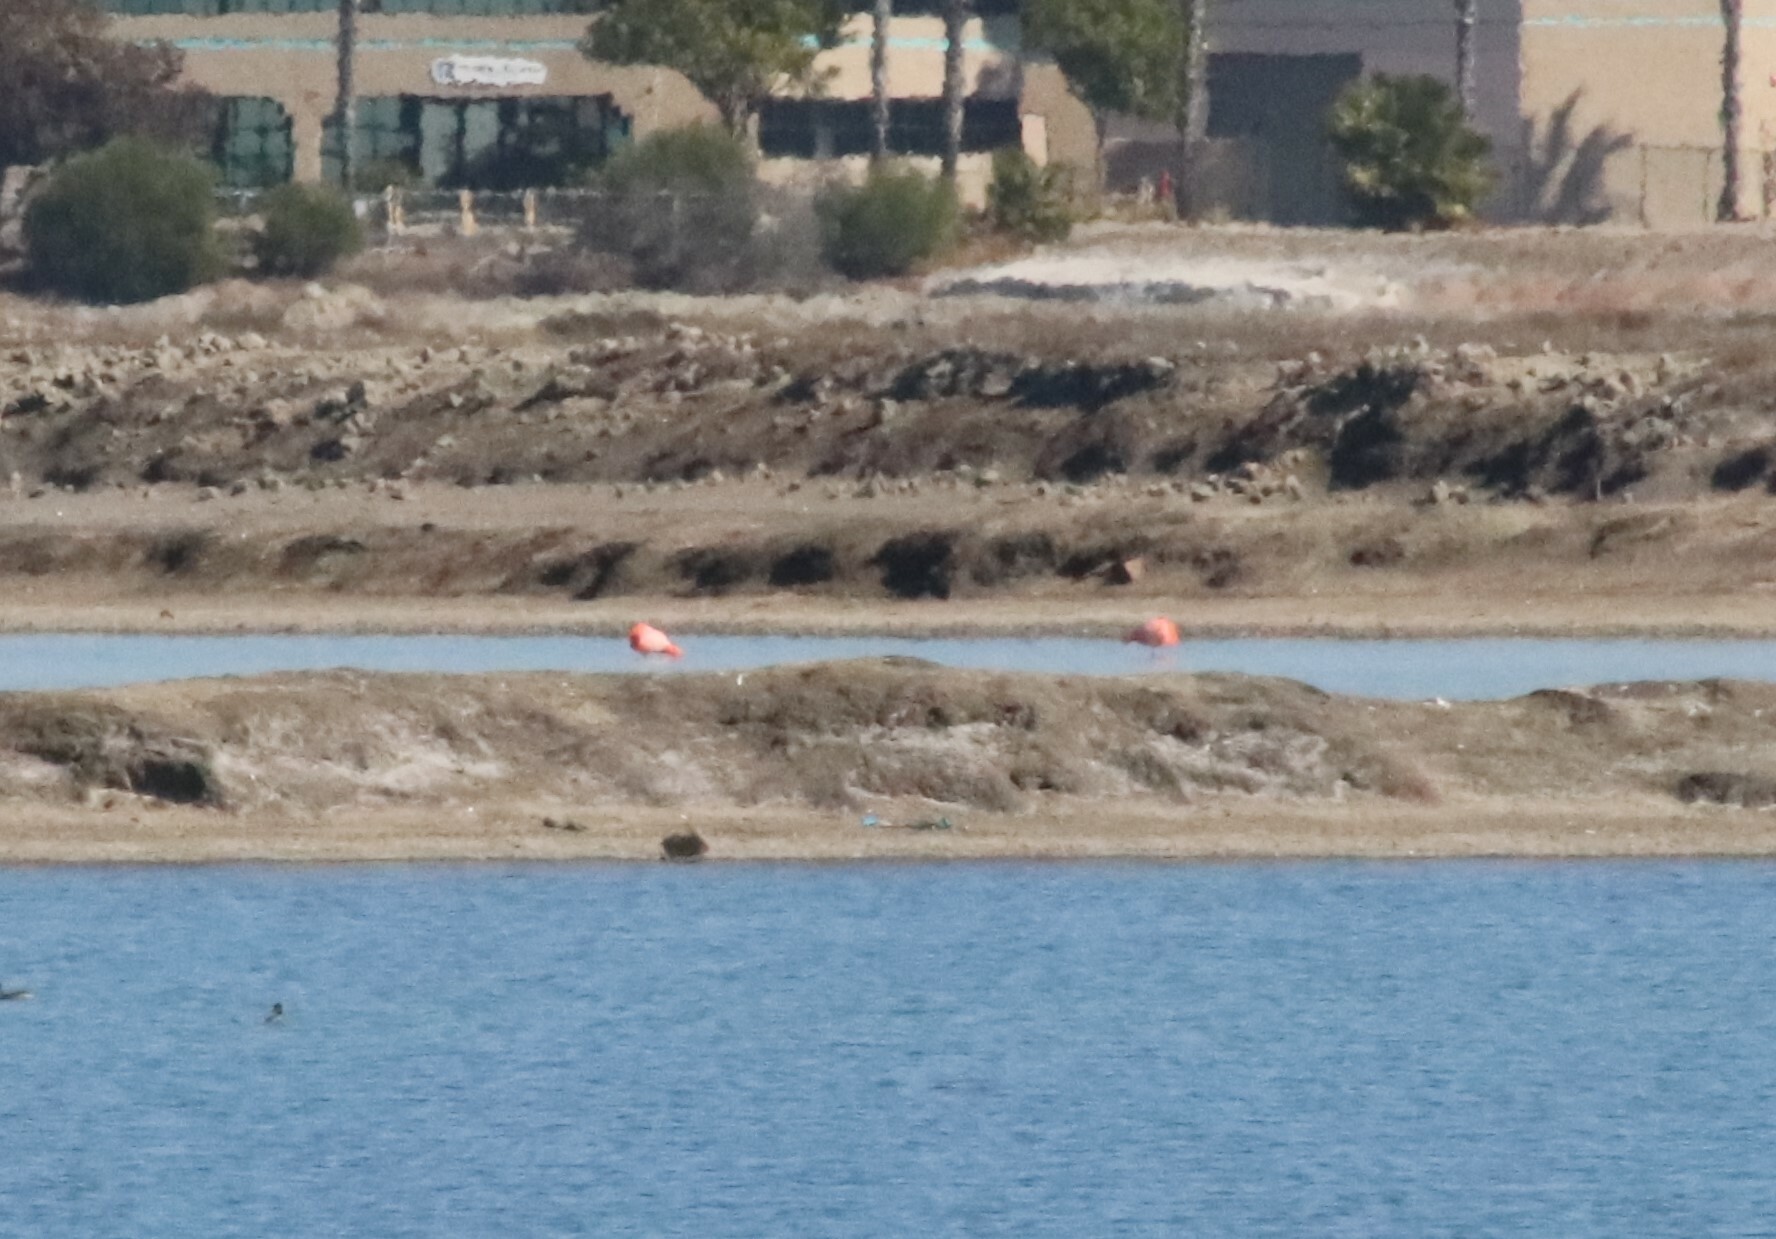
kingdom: Animalia
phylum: Chordata
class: Aves
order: Phoenicopteriformes
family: Phoenicopteridae
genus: Phoenicopterus
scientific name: Phoenicopterus ruber
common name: American flamingo
